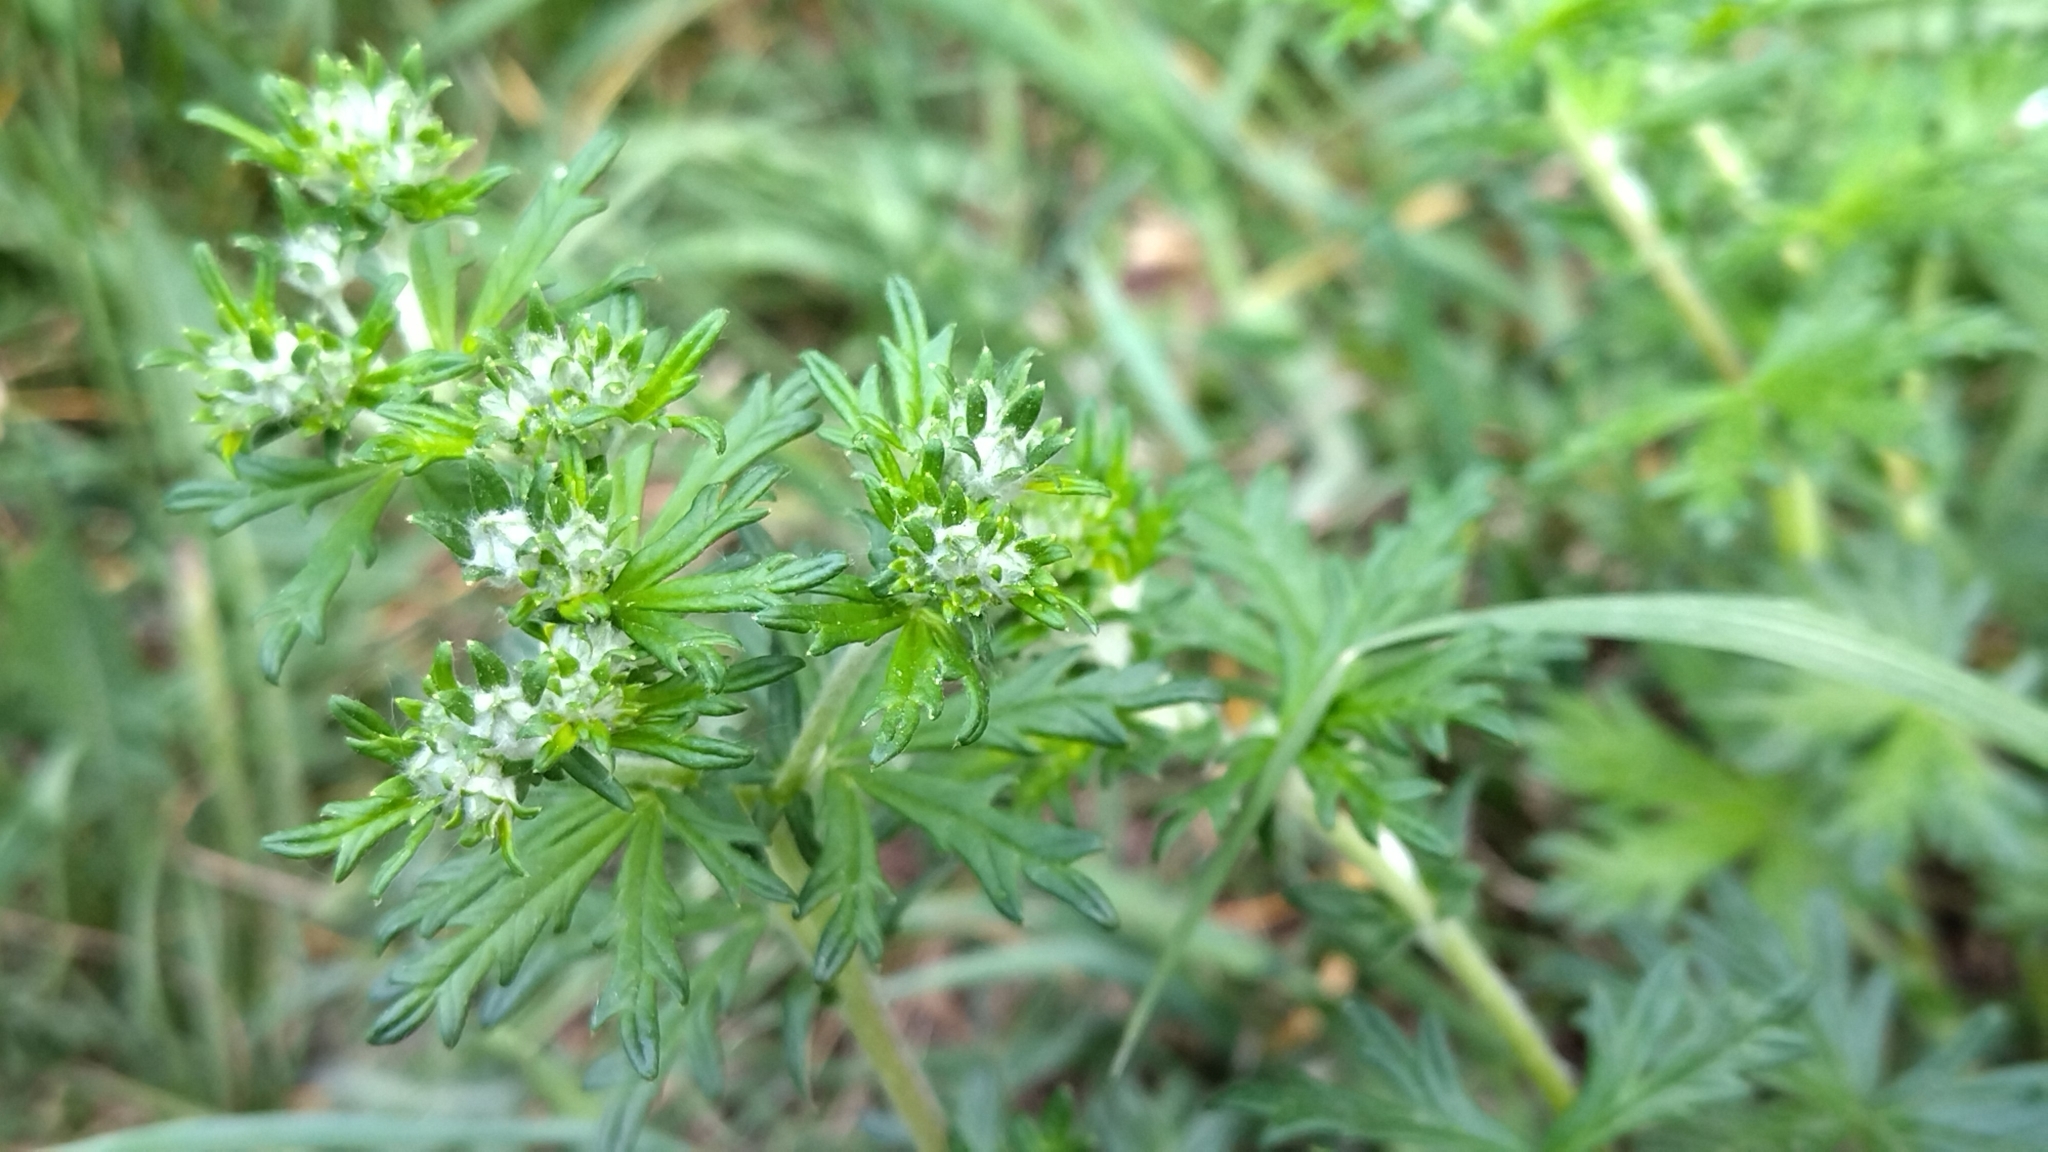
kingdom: Plantae
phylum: Tracheophyta
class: Magnoliopsida
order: Rosales
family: Rosaceae
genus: Potentilla
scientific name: Potentilla argentea
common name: Hoary cinquefoil
